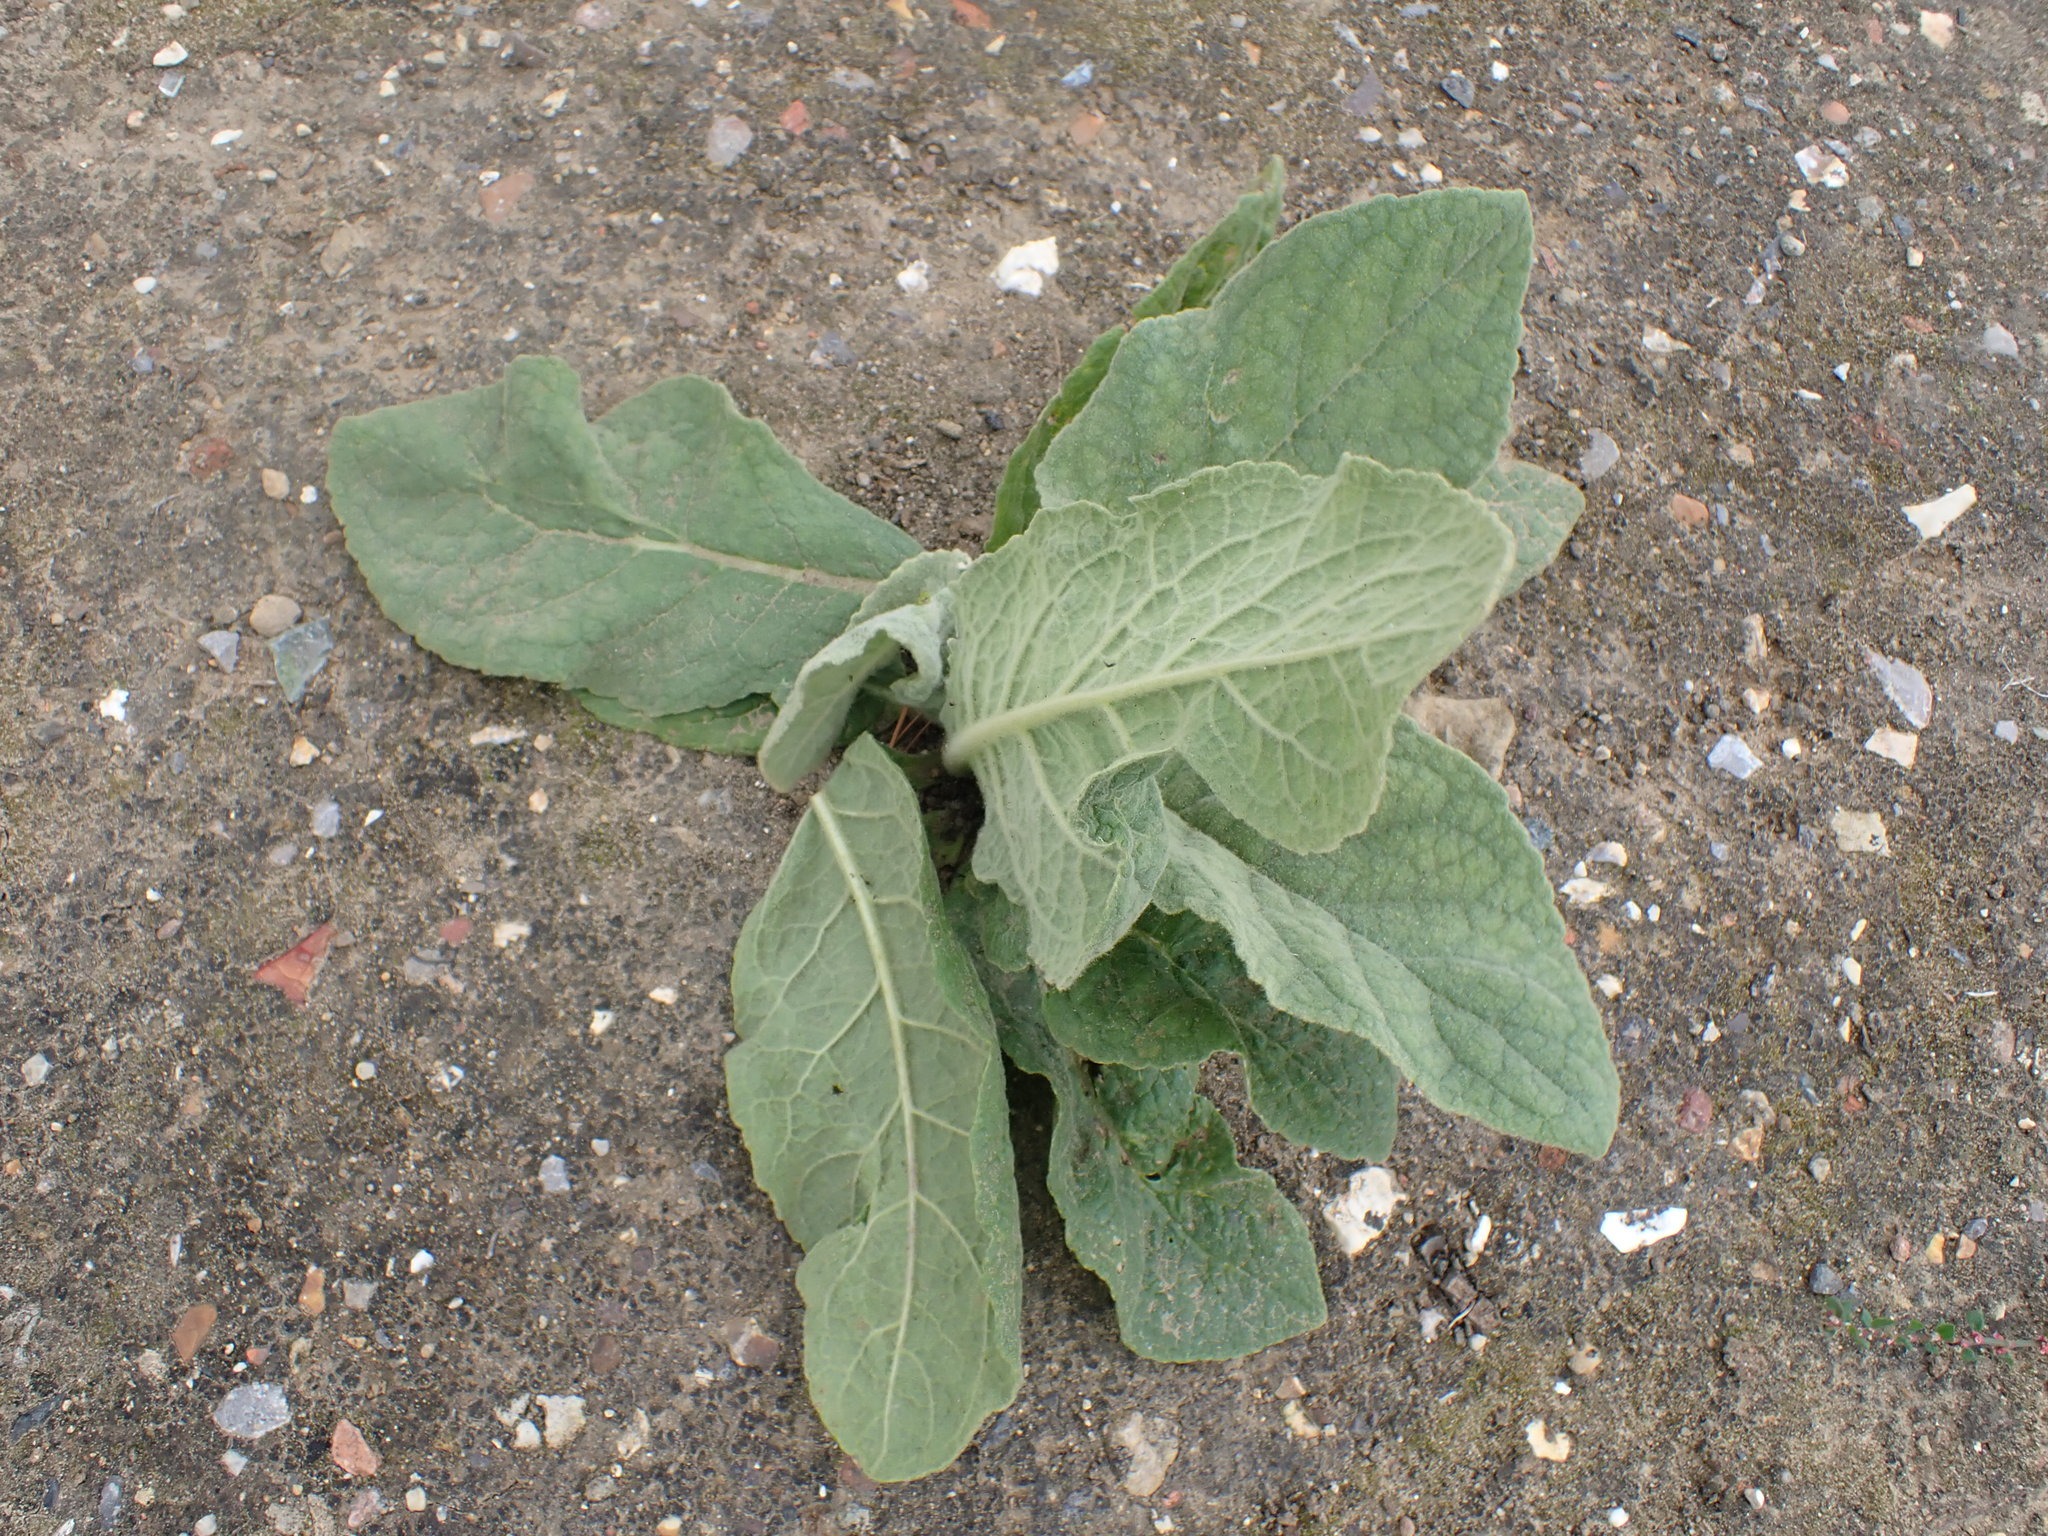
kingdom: Plantae
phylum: Tracheophyta
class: Magnoliopsida
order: Lamiales
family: Scrophulariaceae
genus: Verbascum
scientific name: Verbascum thapsus
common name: Common mullein
